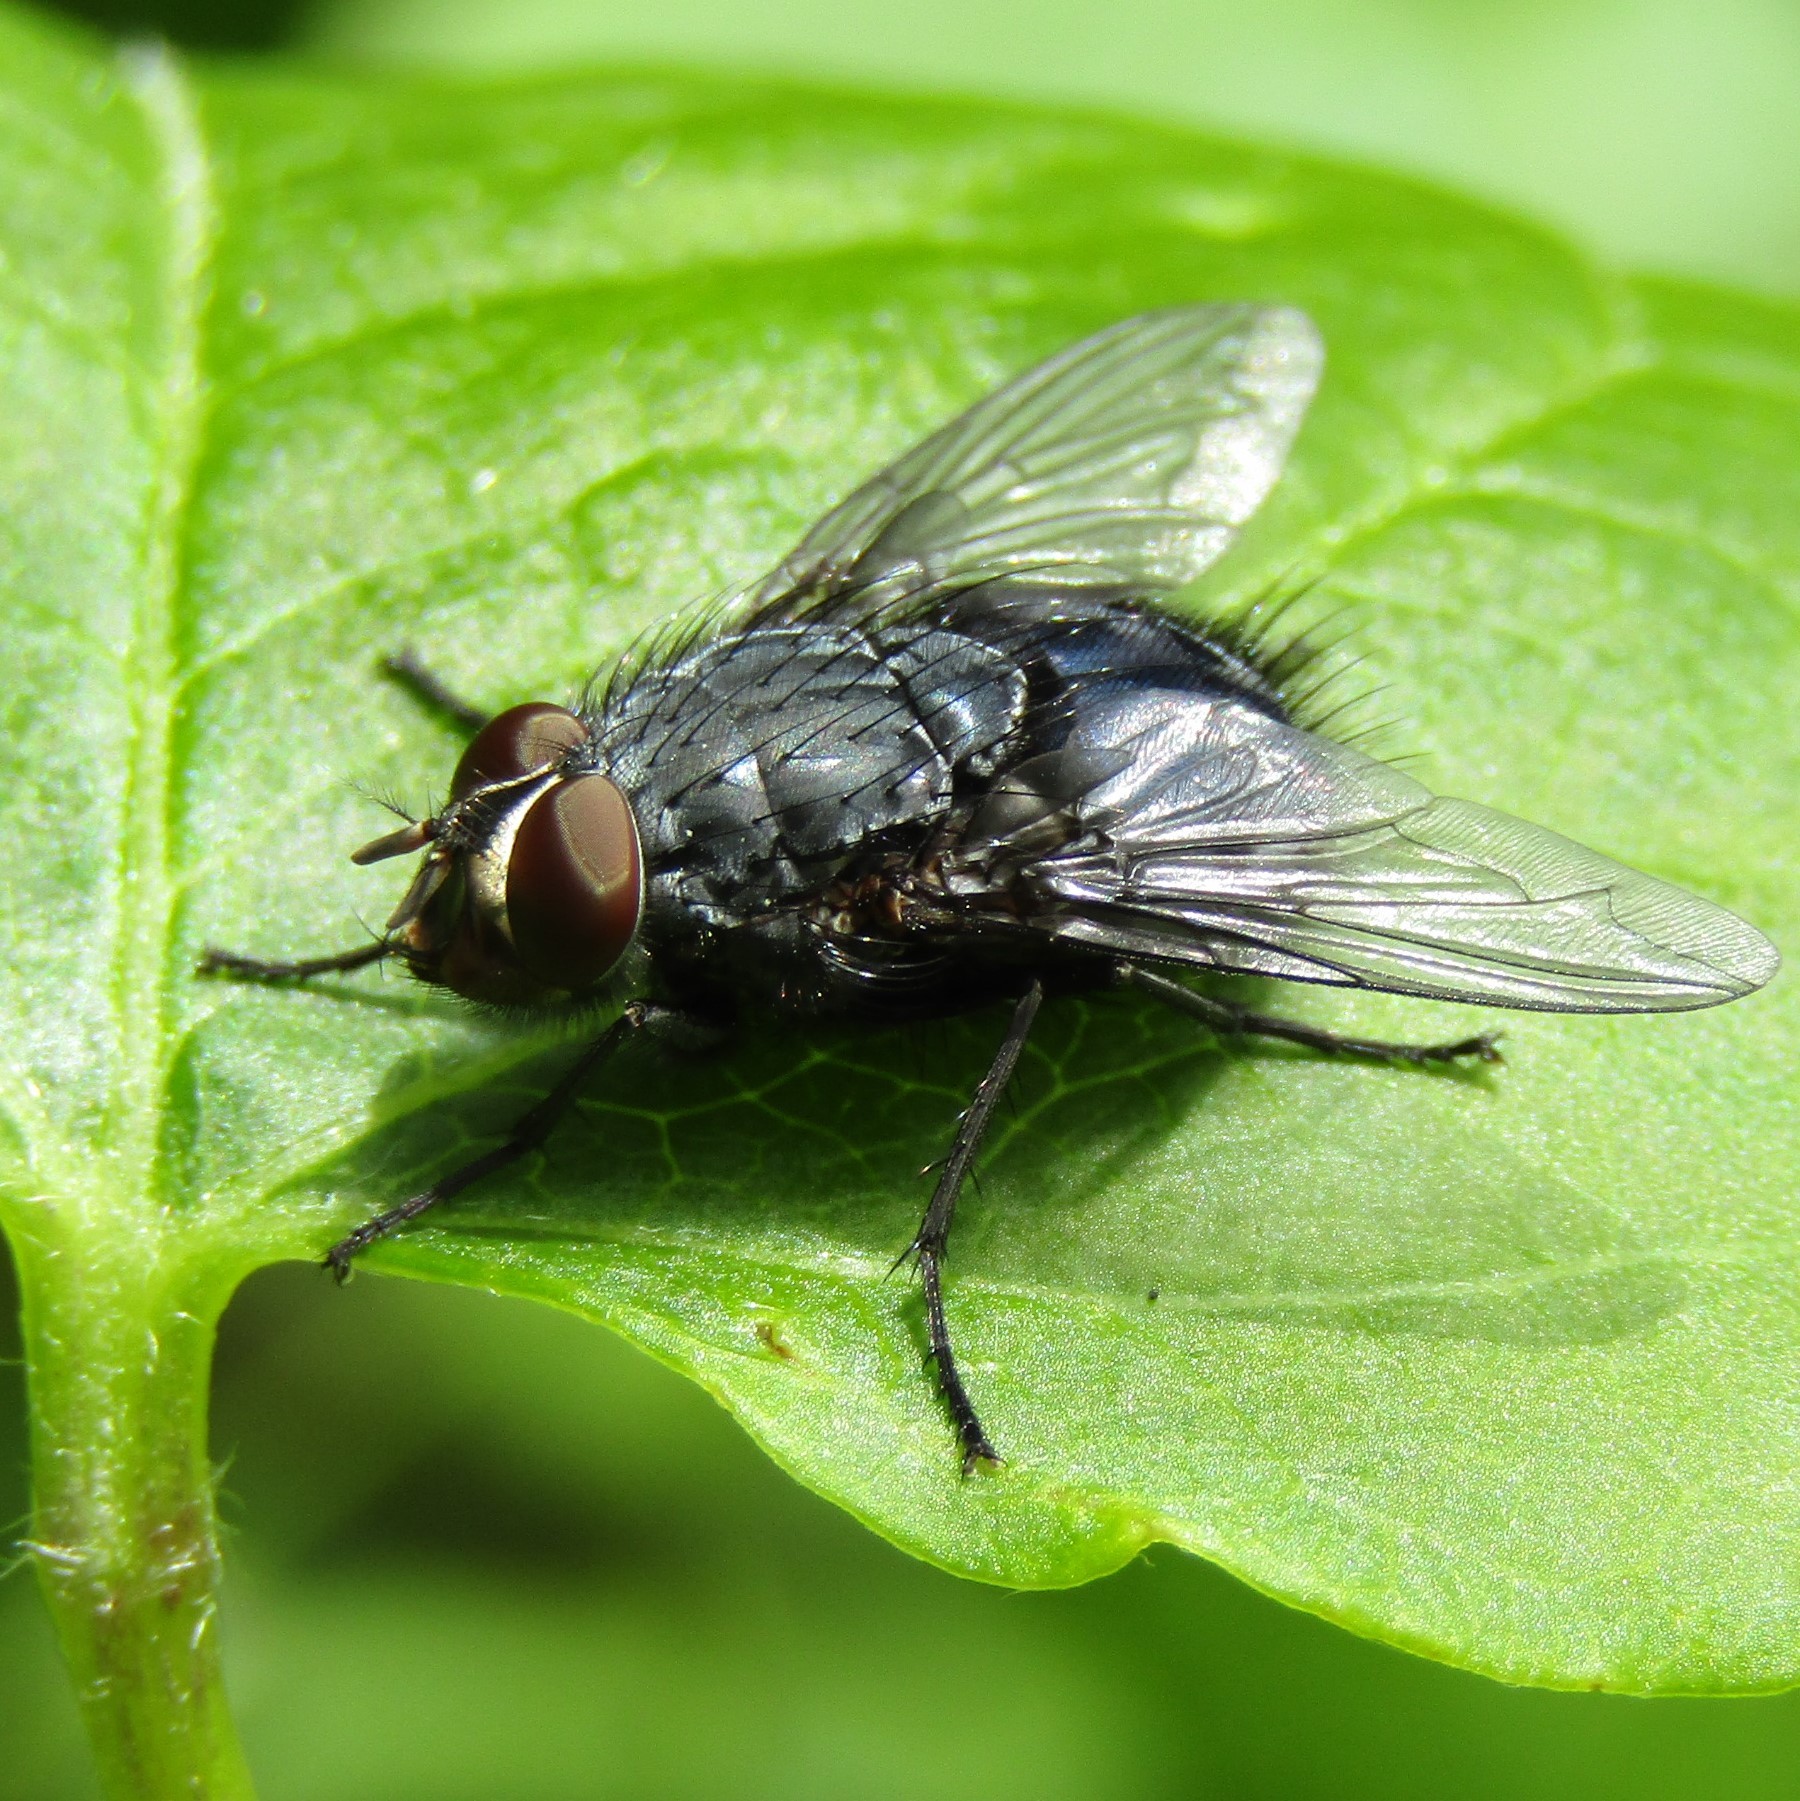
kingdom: Animalia
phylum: Arthropoda
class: Insecta
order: Diptera
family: Calliphoridae
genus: Calliphora
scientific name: Calliphora vicina
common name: Common blow flie
